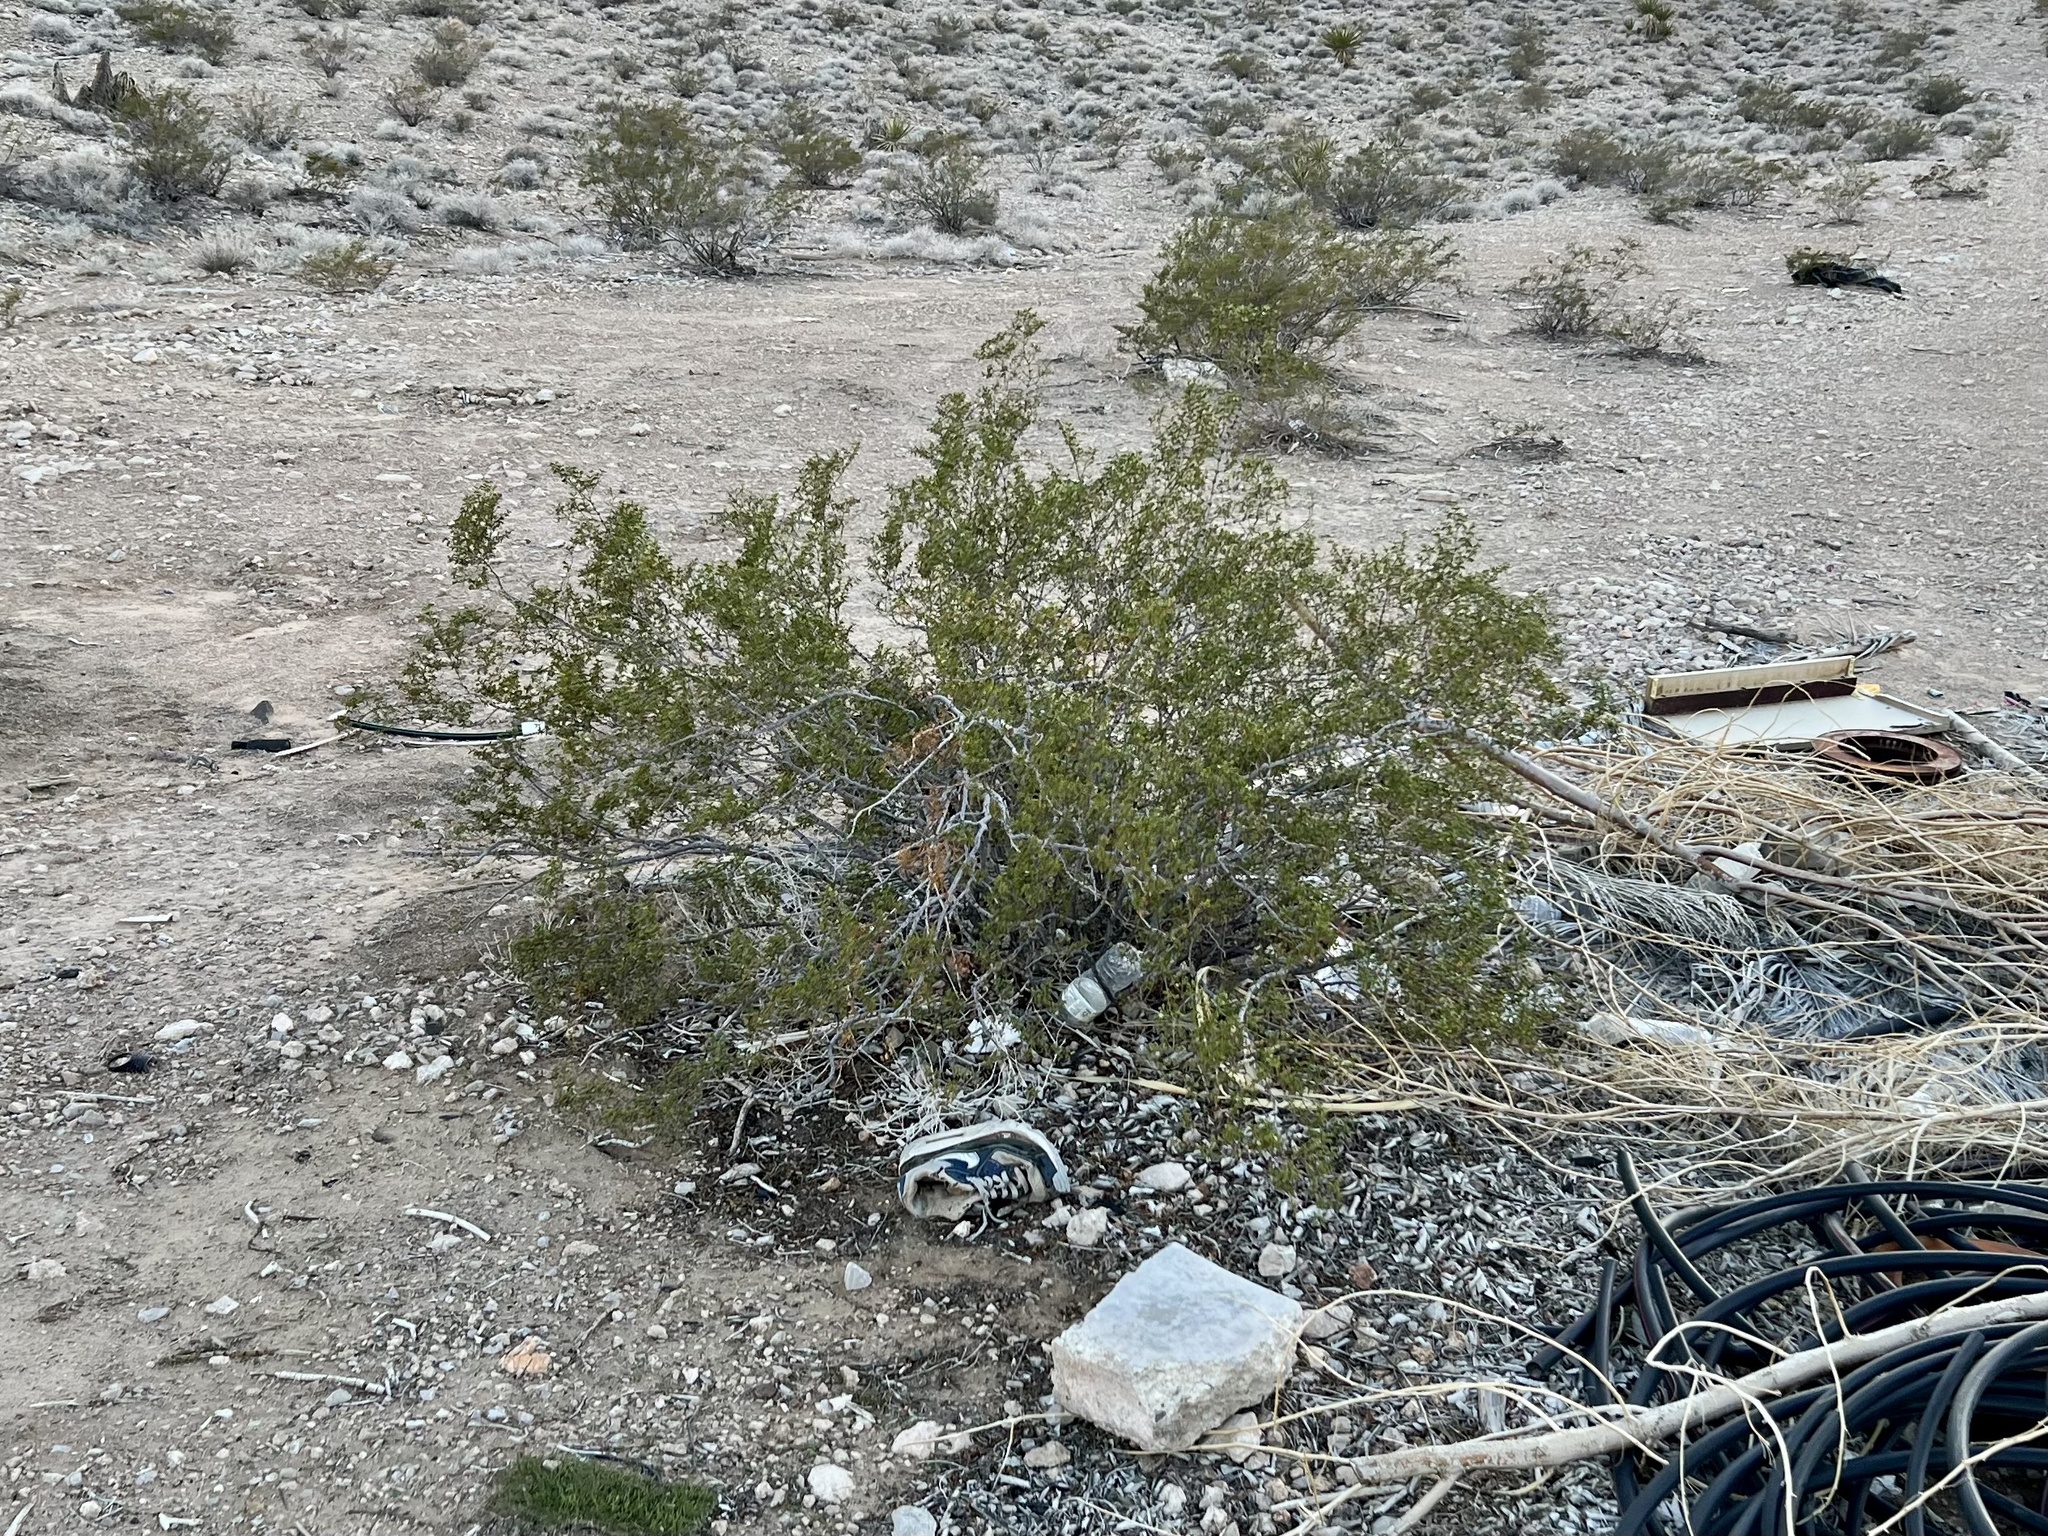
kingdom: Plantae
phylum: Tracheophyta
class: Magnoliopsida
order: Zygophyllales
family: Zygophyllaceae
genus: Larrea
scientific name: Larrea tridentata
